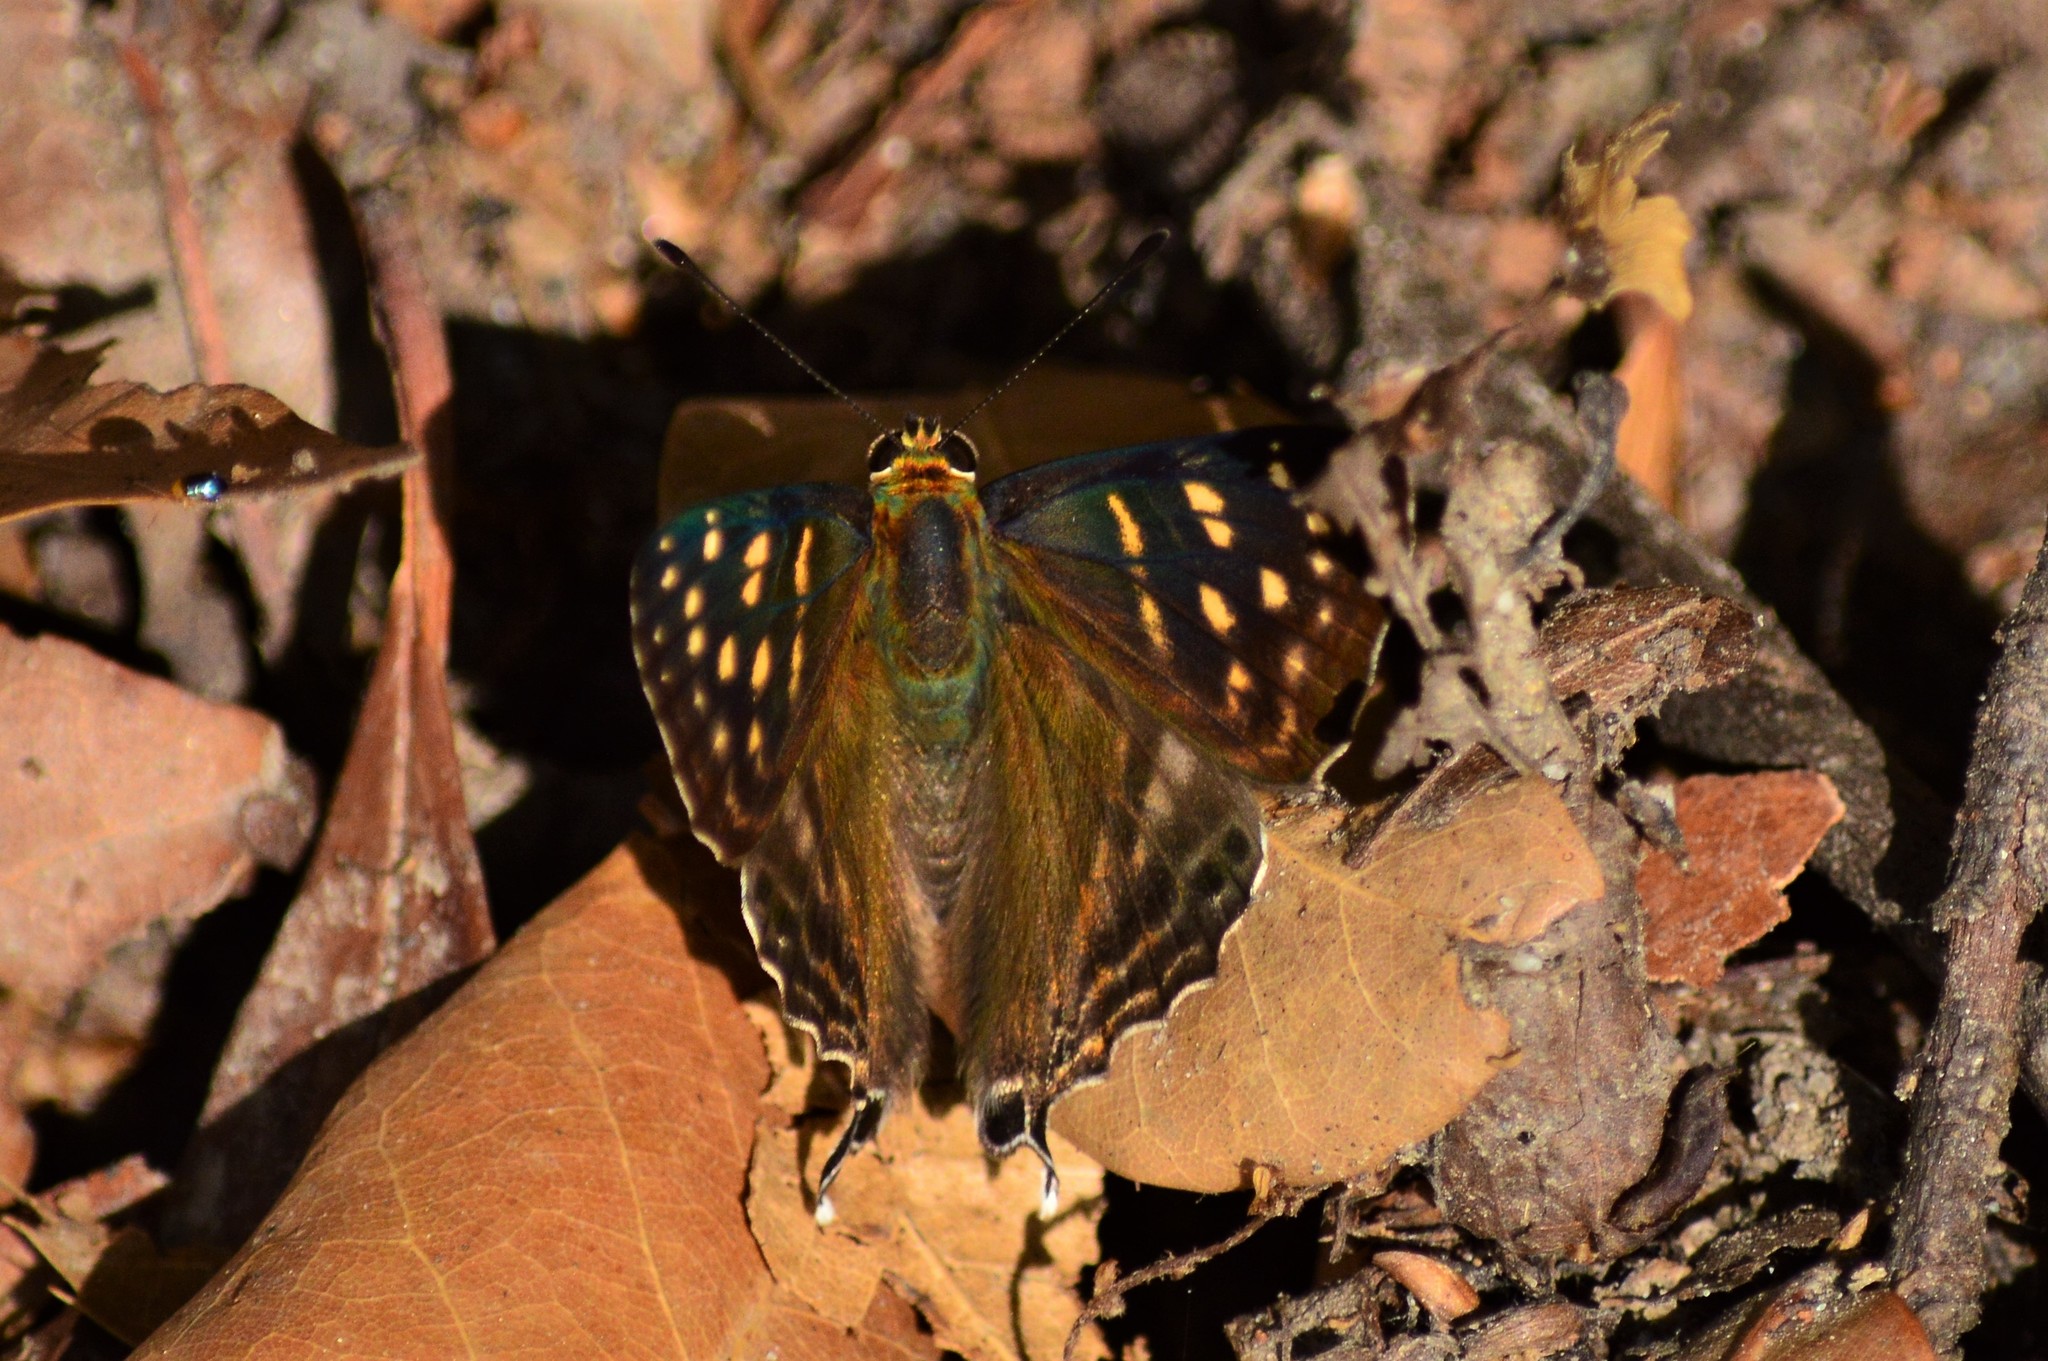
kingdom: Animalia
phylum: Arthropoda
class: Insecta
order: Lepidoptera
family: Lycaenidae
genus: Dodona
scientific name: Dodona eugenes
